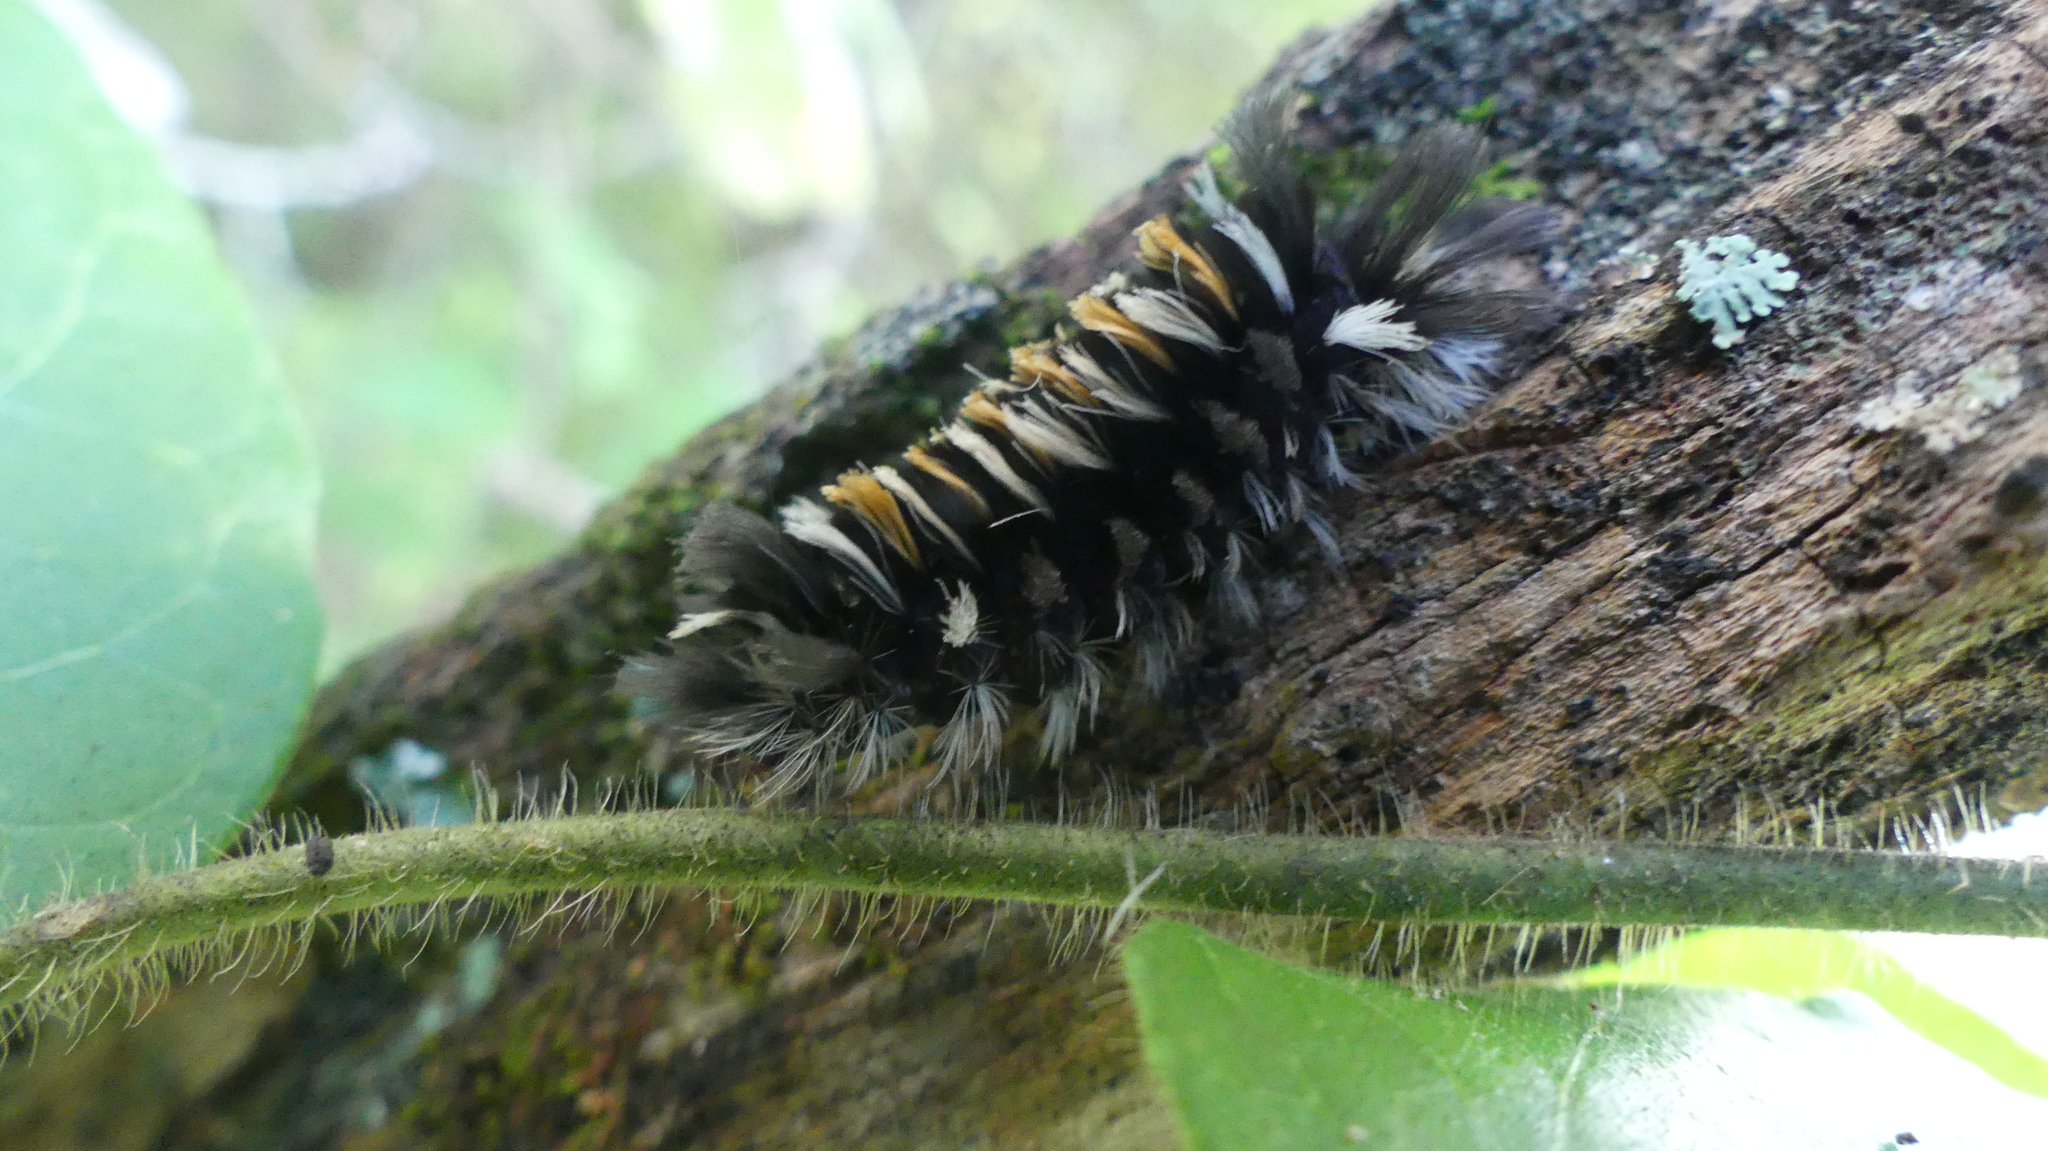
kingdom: Animalia
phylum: Arthropoda
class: Insecta
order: Lepidoptera
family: Erebidae
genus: Euchaetes
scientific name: Euchaetes egle
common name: Milkweed tussock moth
